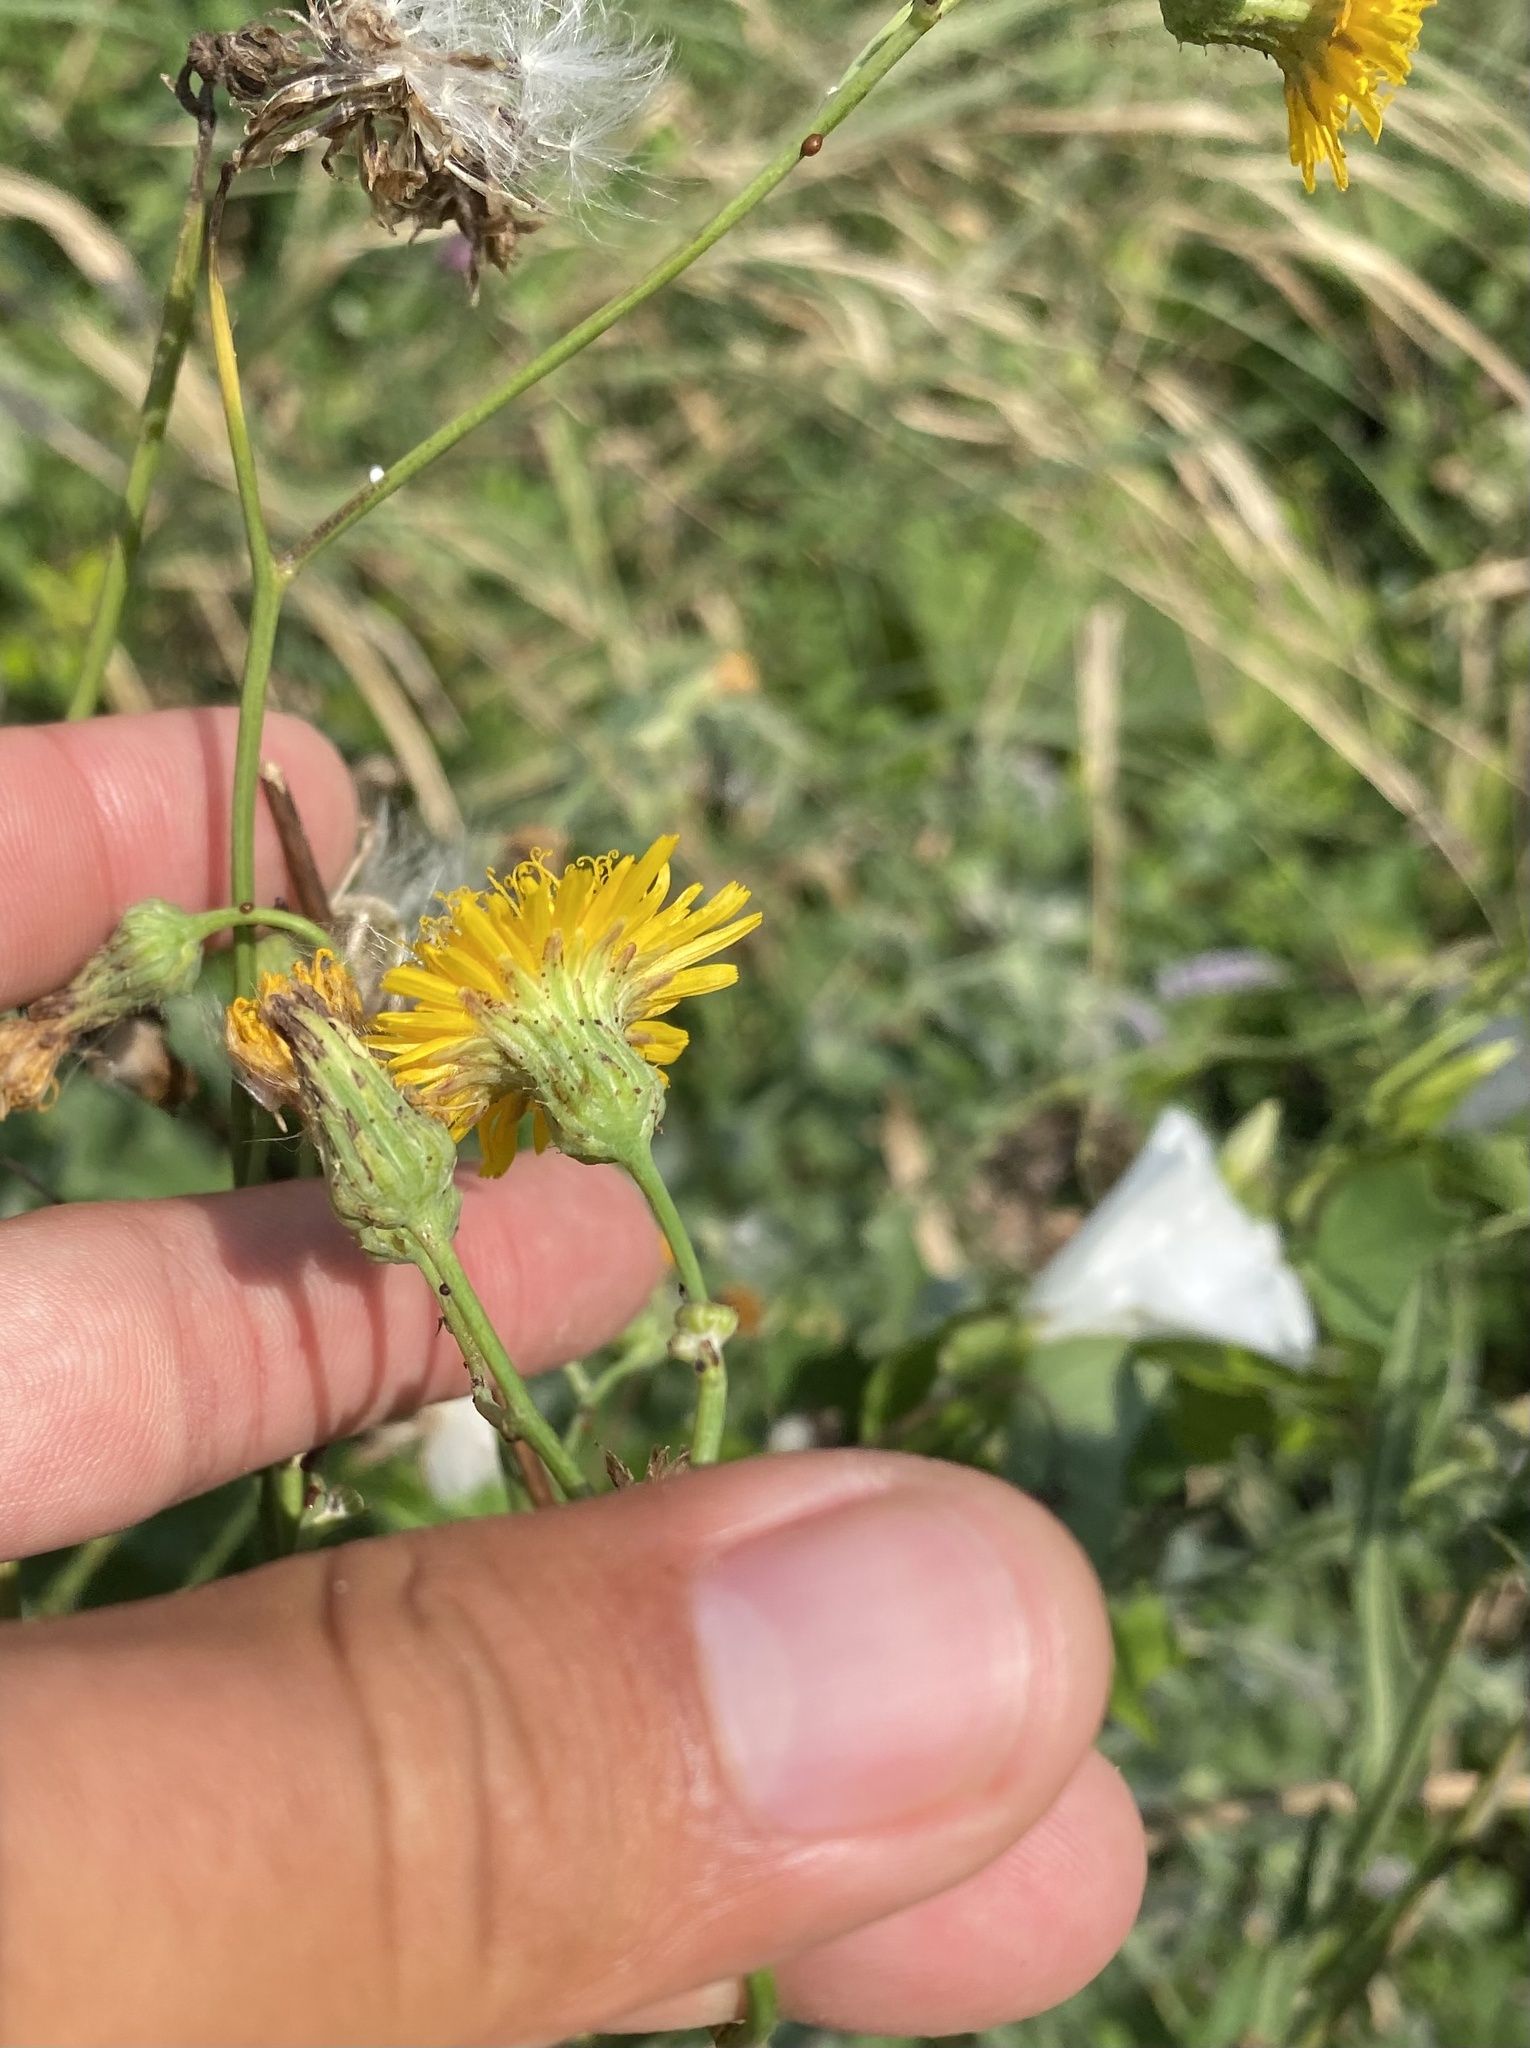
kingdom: Plantae
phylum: Tracheophyta
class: Magnoliopsida
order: Asterales
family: Asteraceae
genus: Sonchus
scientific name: Sonchus arvensis
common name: Perennial sow-thistle
